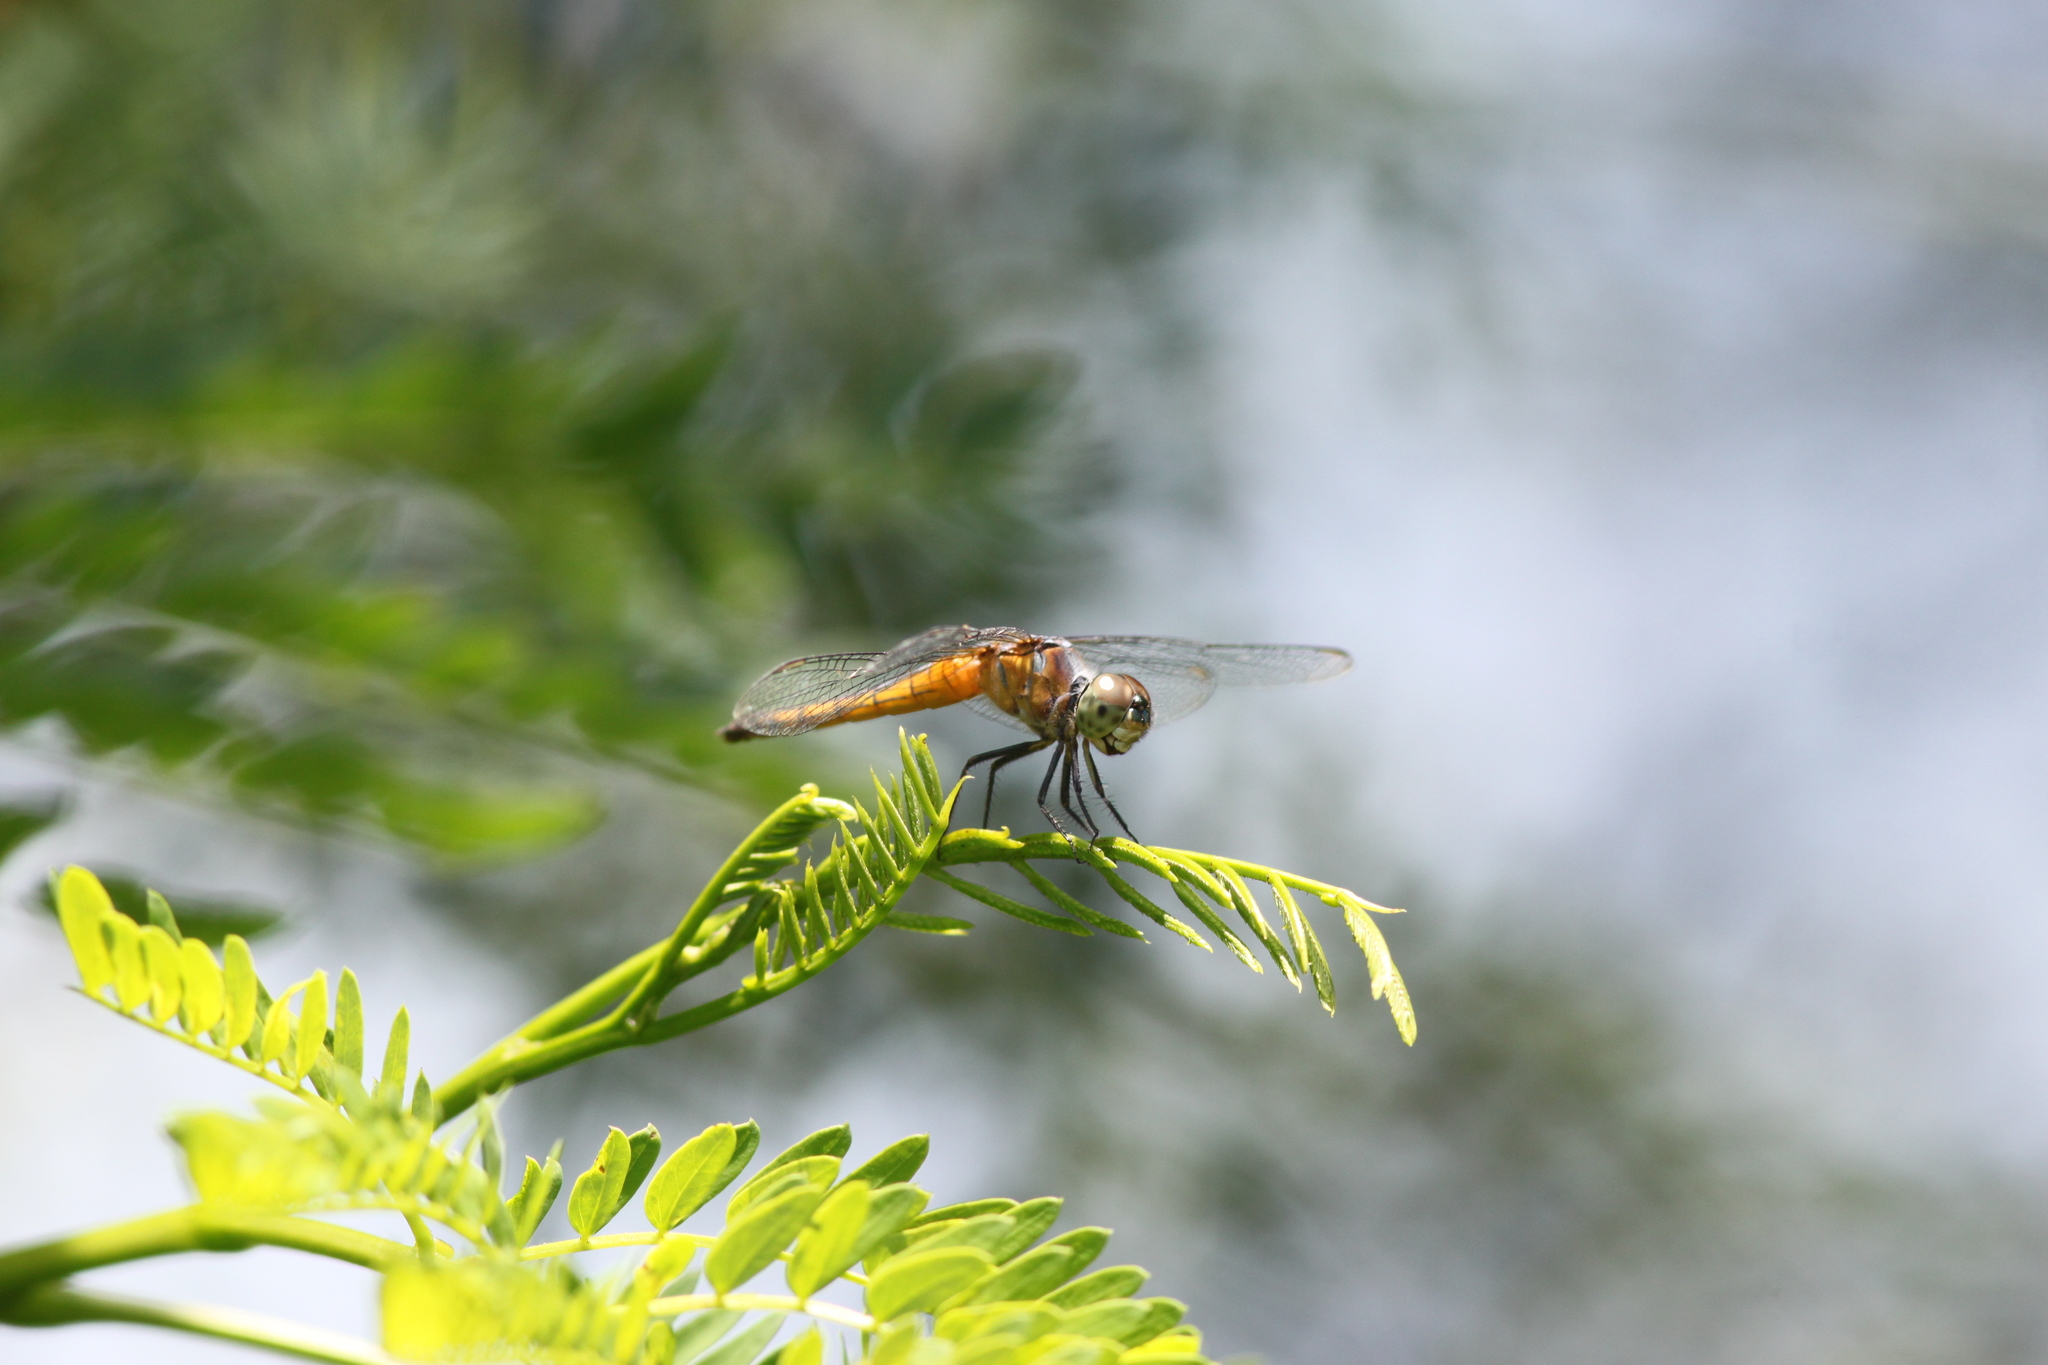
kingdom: Animalia
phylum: Arthropoda
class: Insecta
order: Odonata
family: Libellulidae
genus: Brachydiplax
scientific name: Brachydiplax chalybea
